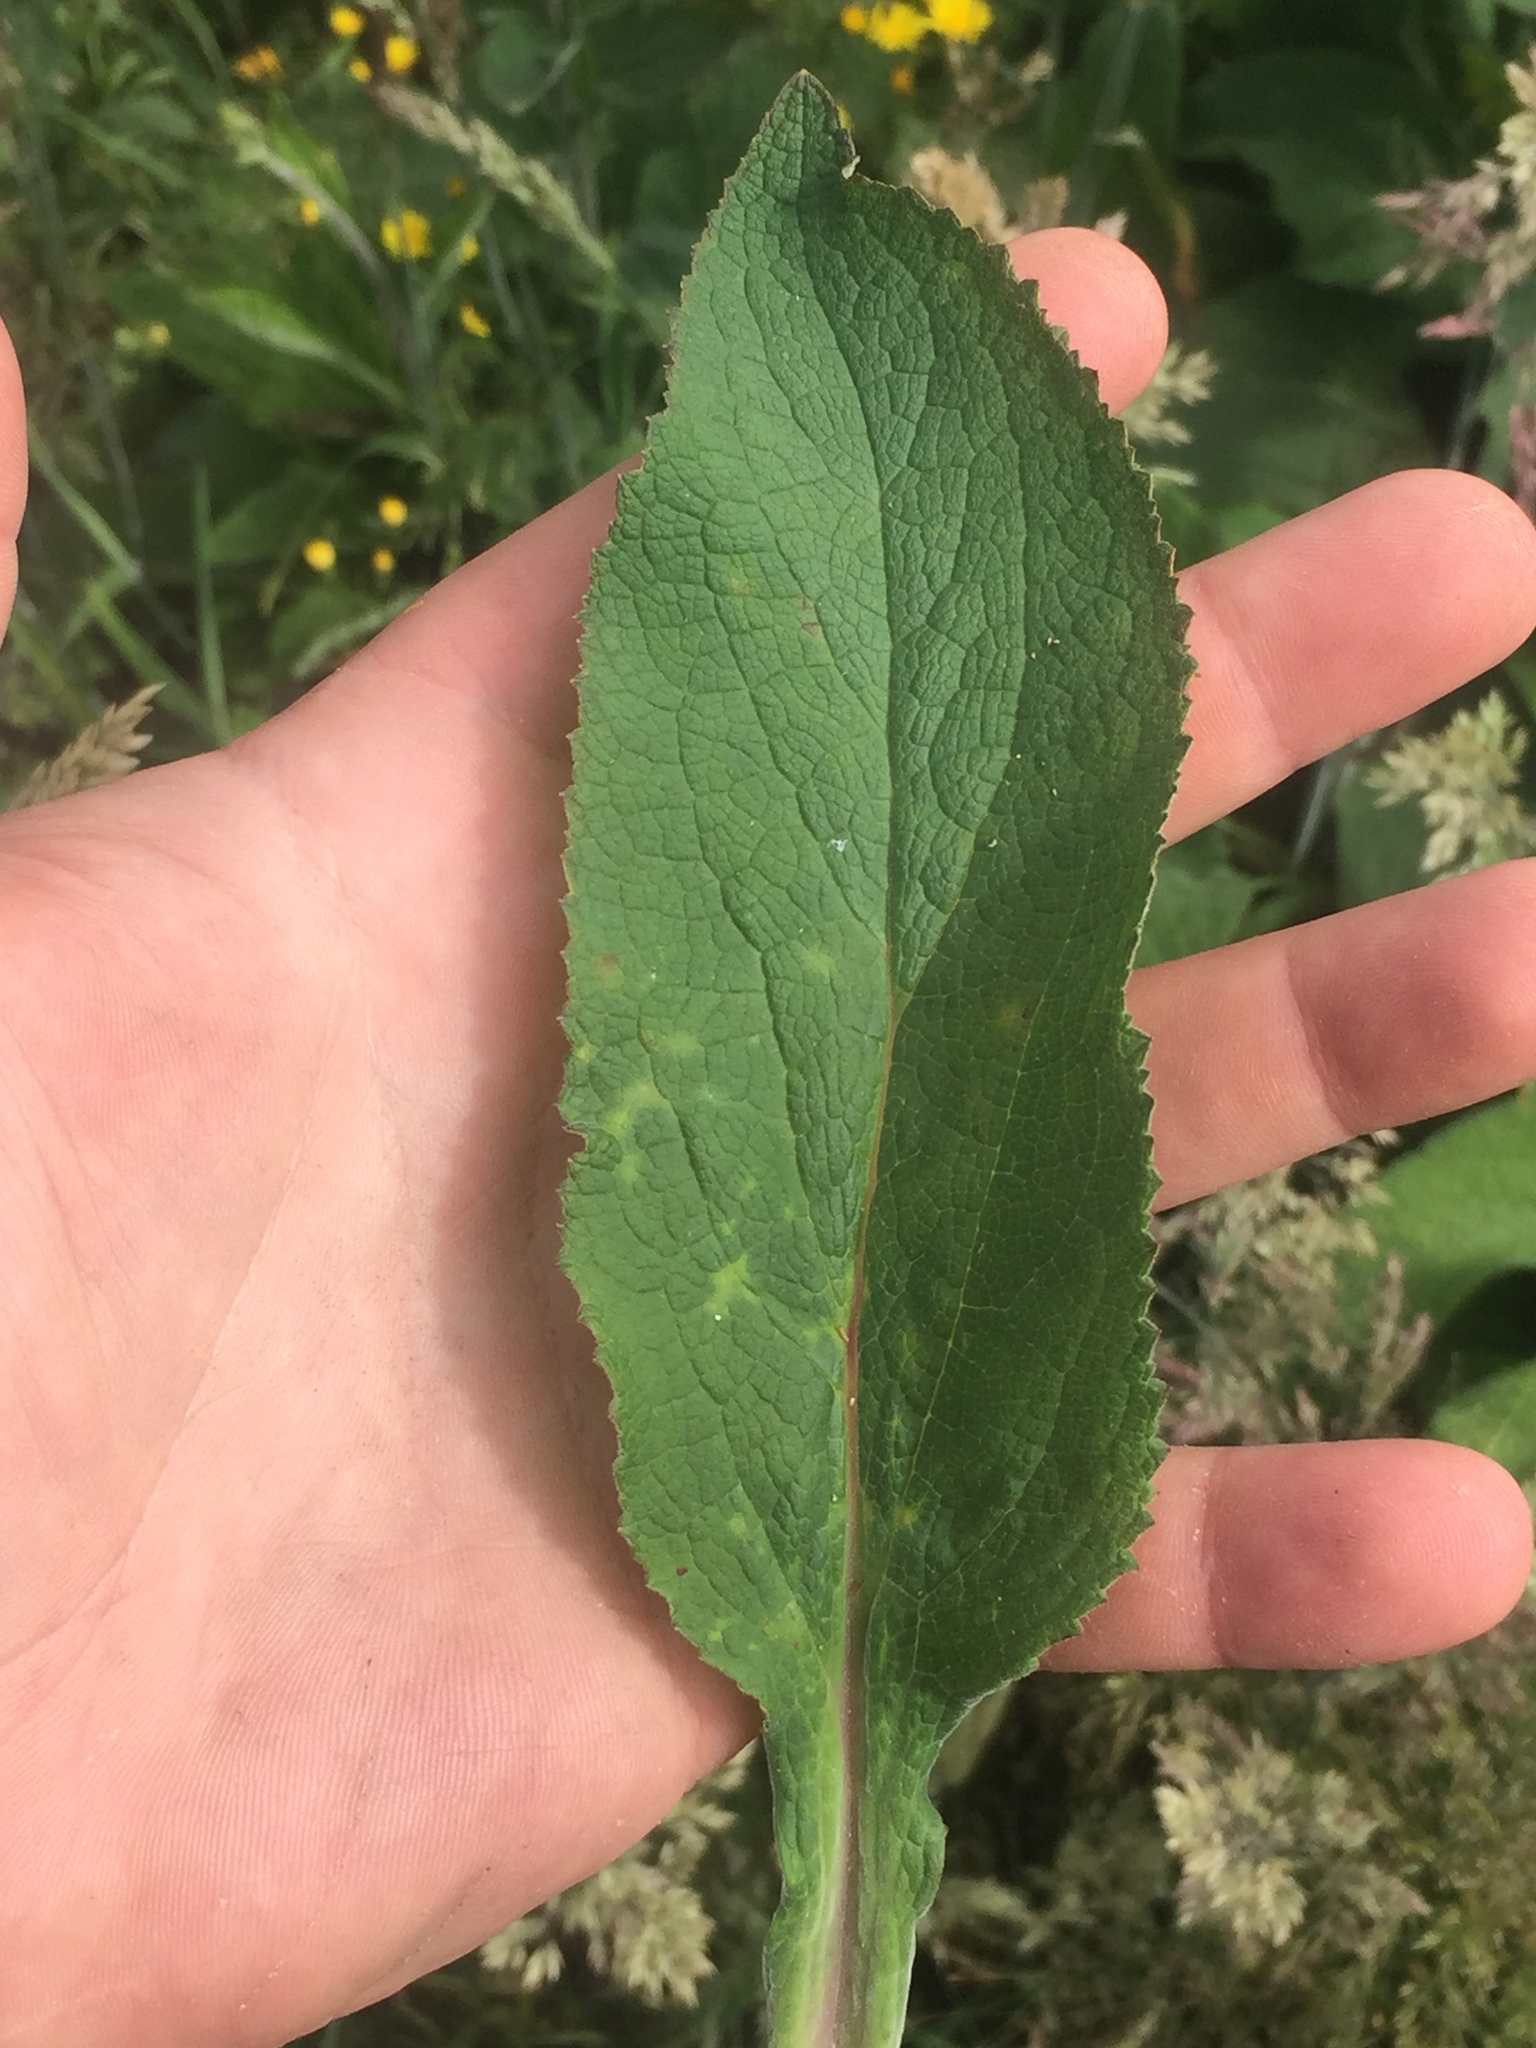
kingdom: Plantae
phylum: Tracheophyta
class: Magnoliopsida
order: Lamiales
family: Plantaginaceae
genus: Digitalis
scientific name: Digitalis purpurea
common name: Foxglove
